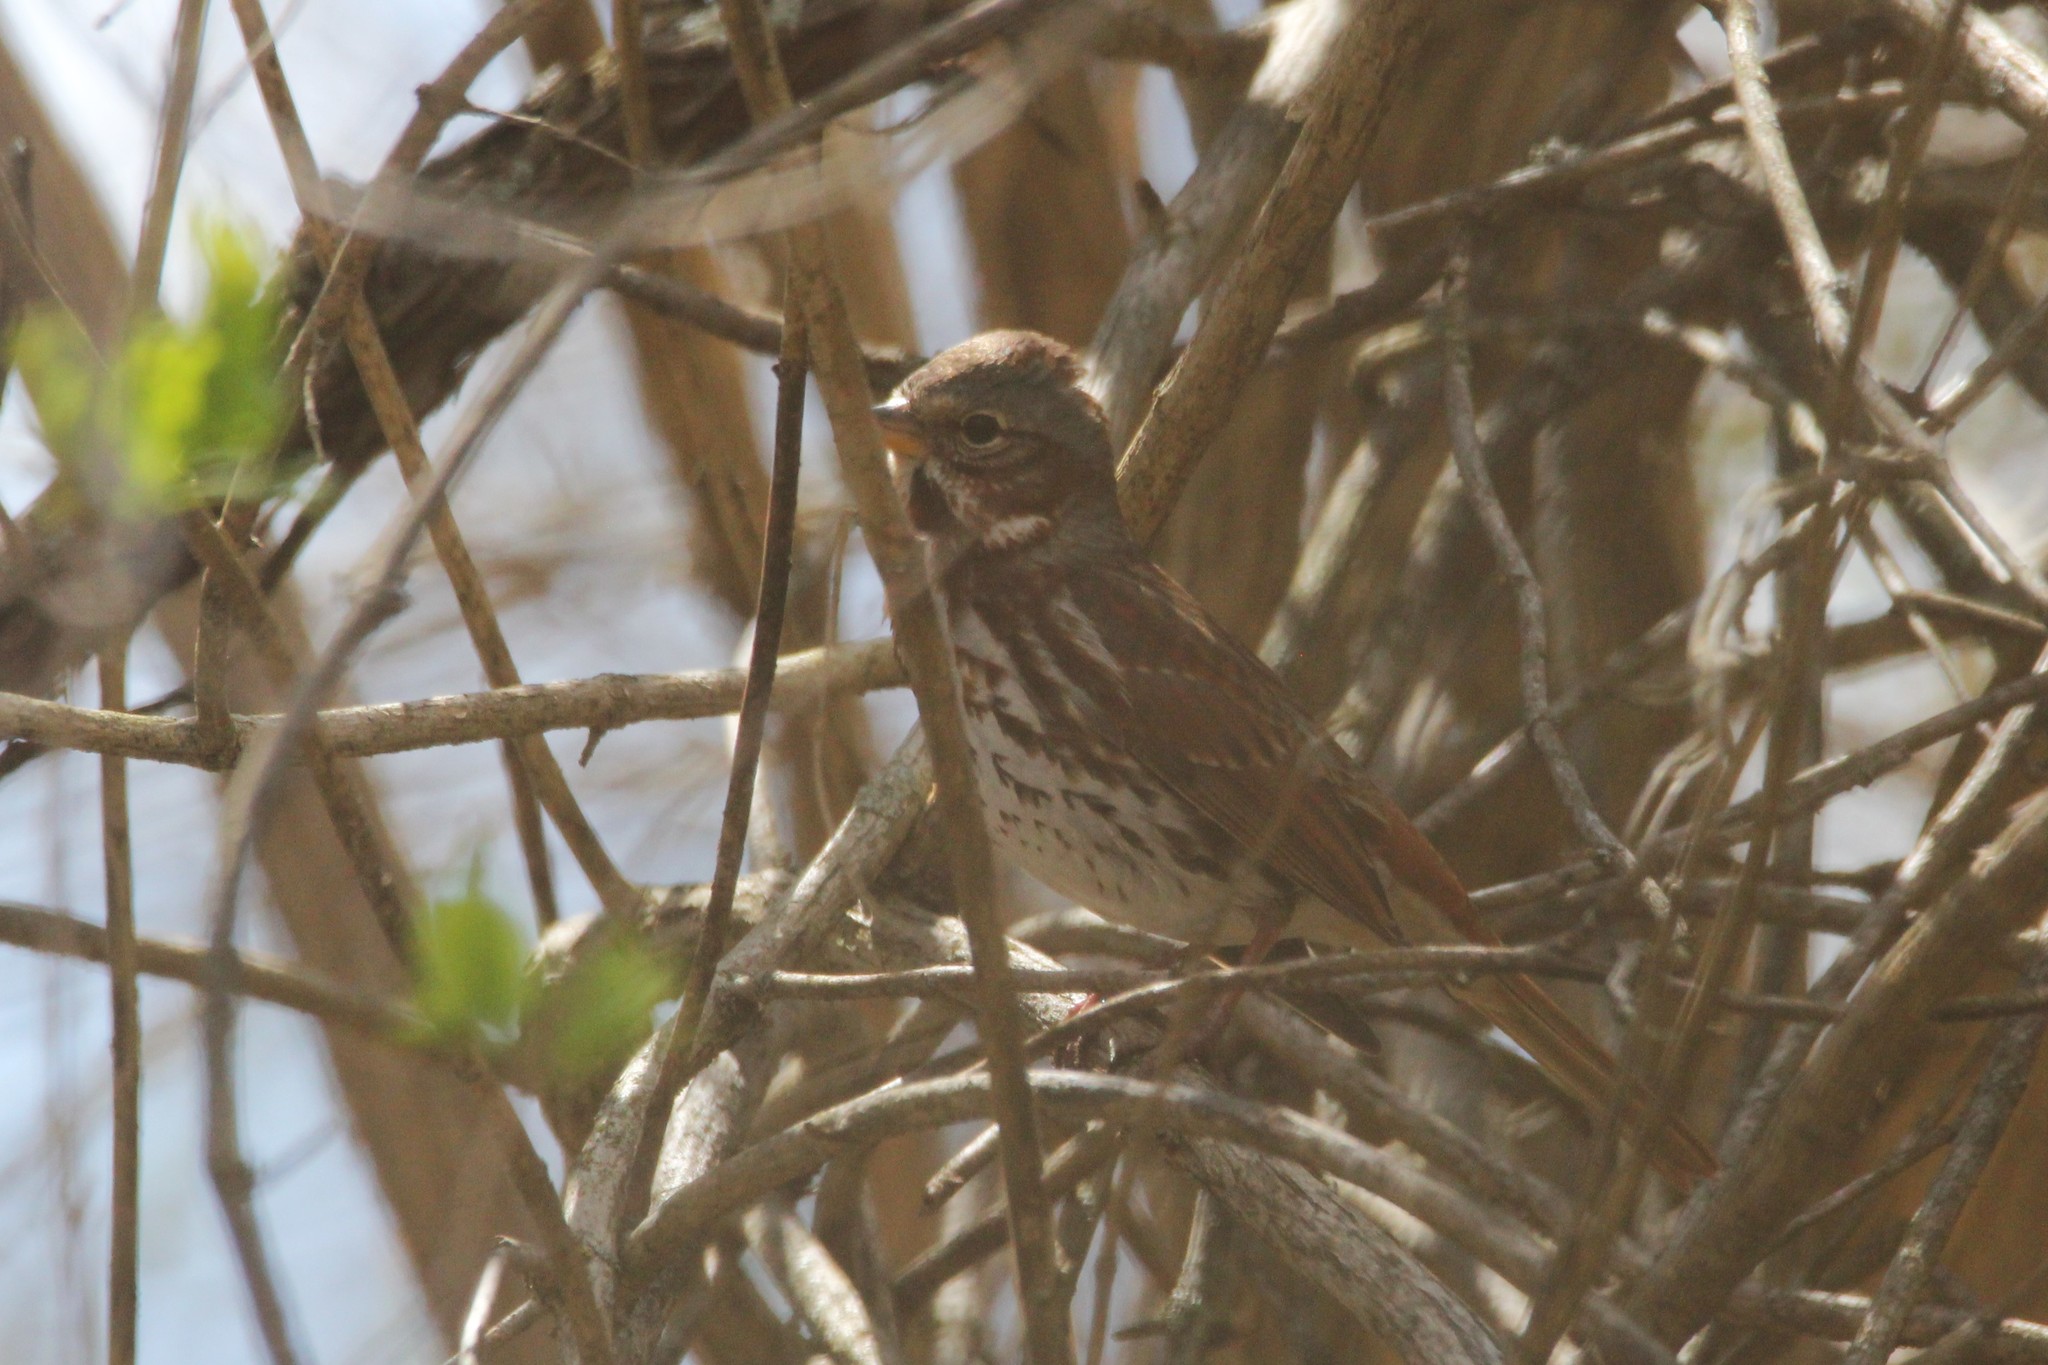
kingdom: Animalia
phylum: Chordata
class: Aves
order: Passeriformes
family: Passerellidae
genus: Passerella
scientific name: Passerella iliaca
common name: Fox sparrow
